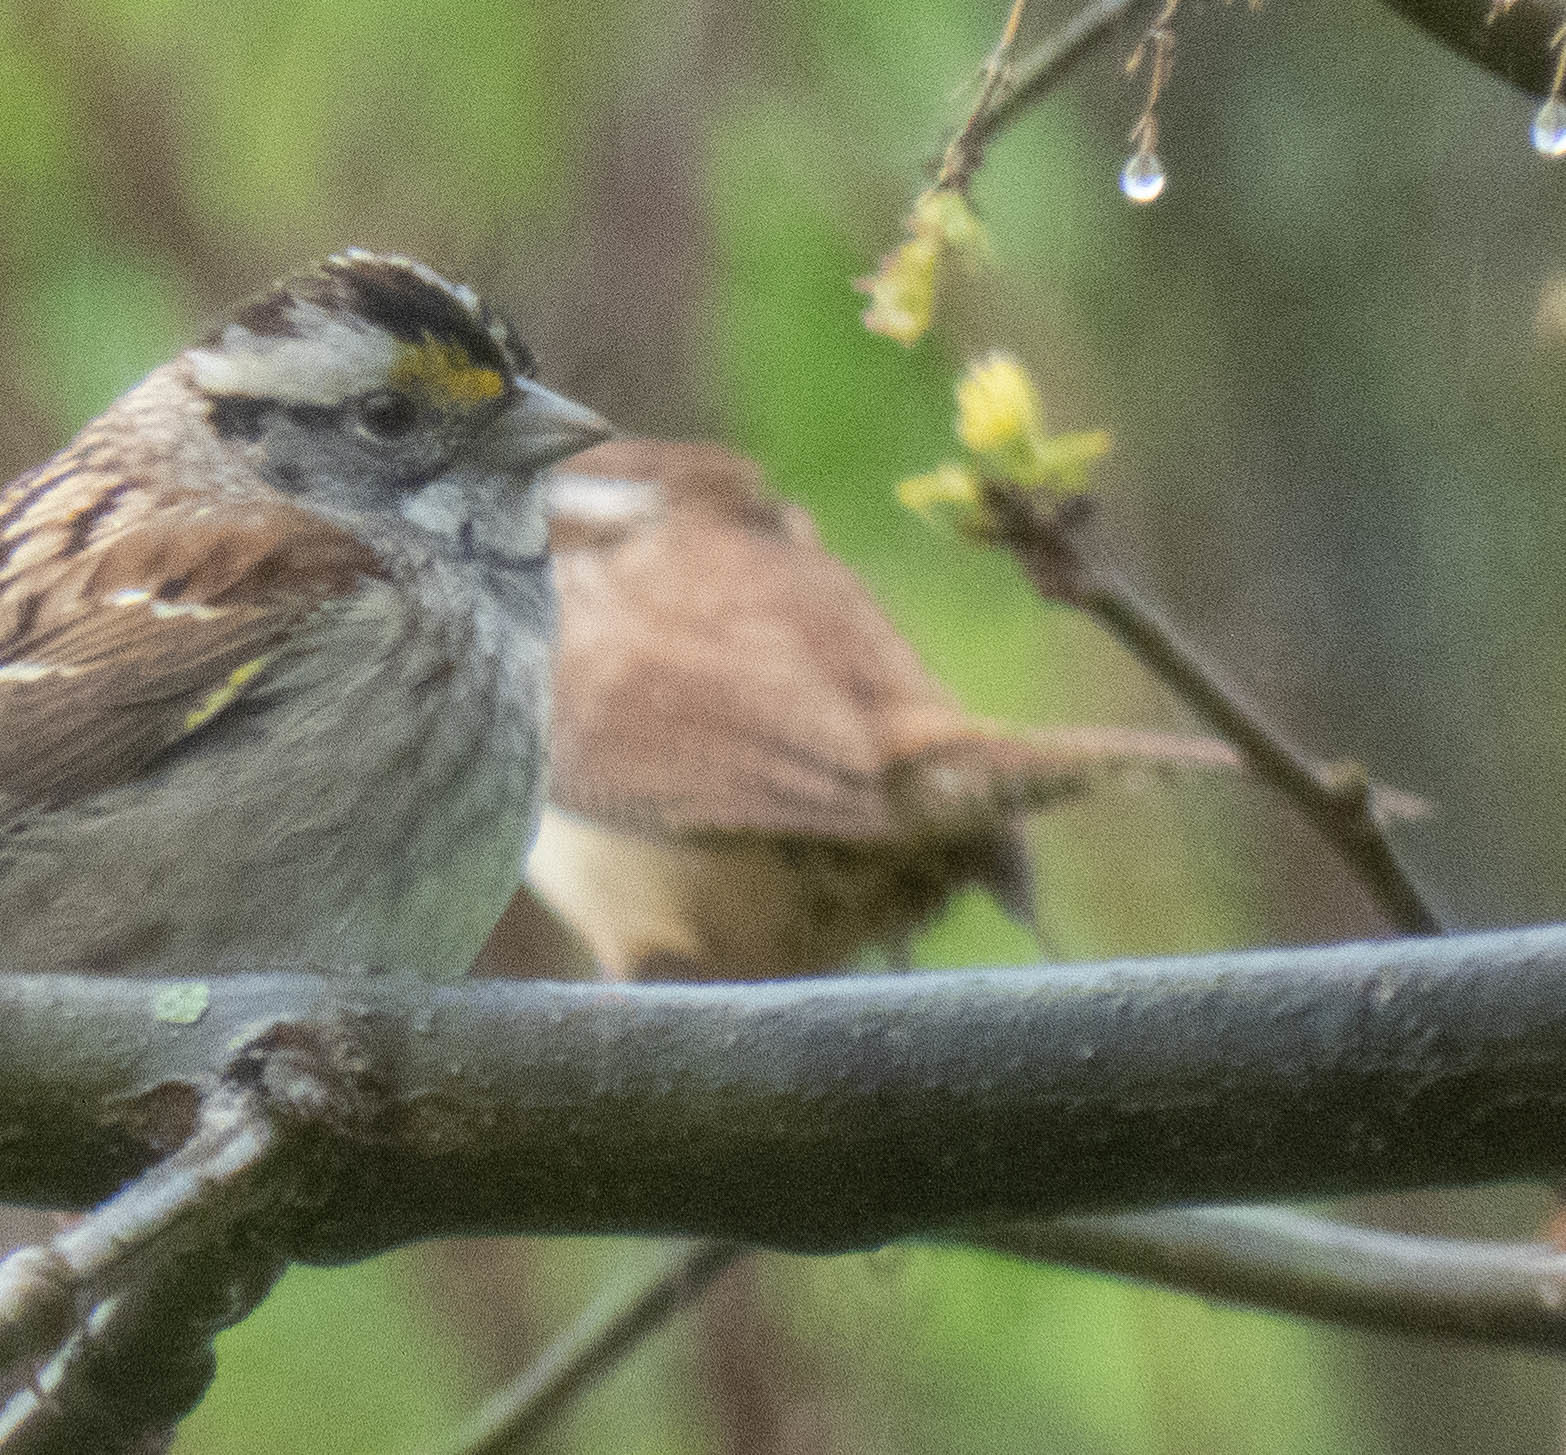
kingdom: Animalia
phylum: Chordata
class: Aves
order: Passeriformes
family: Troglodytidae
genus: Thryothorus
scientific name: Thryothorus ludovicianus
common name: Carolina wren
